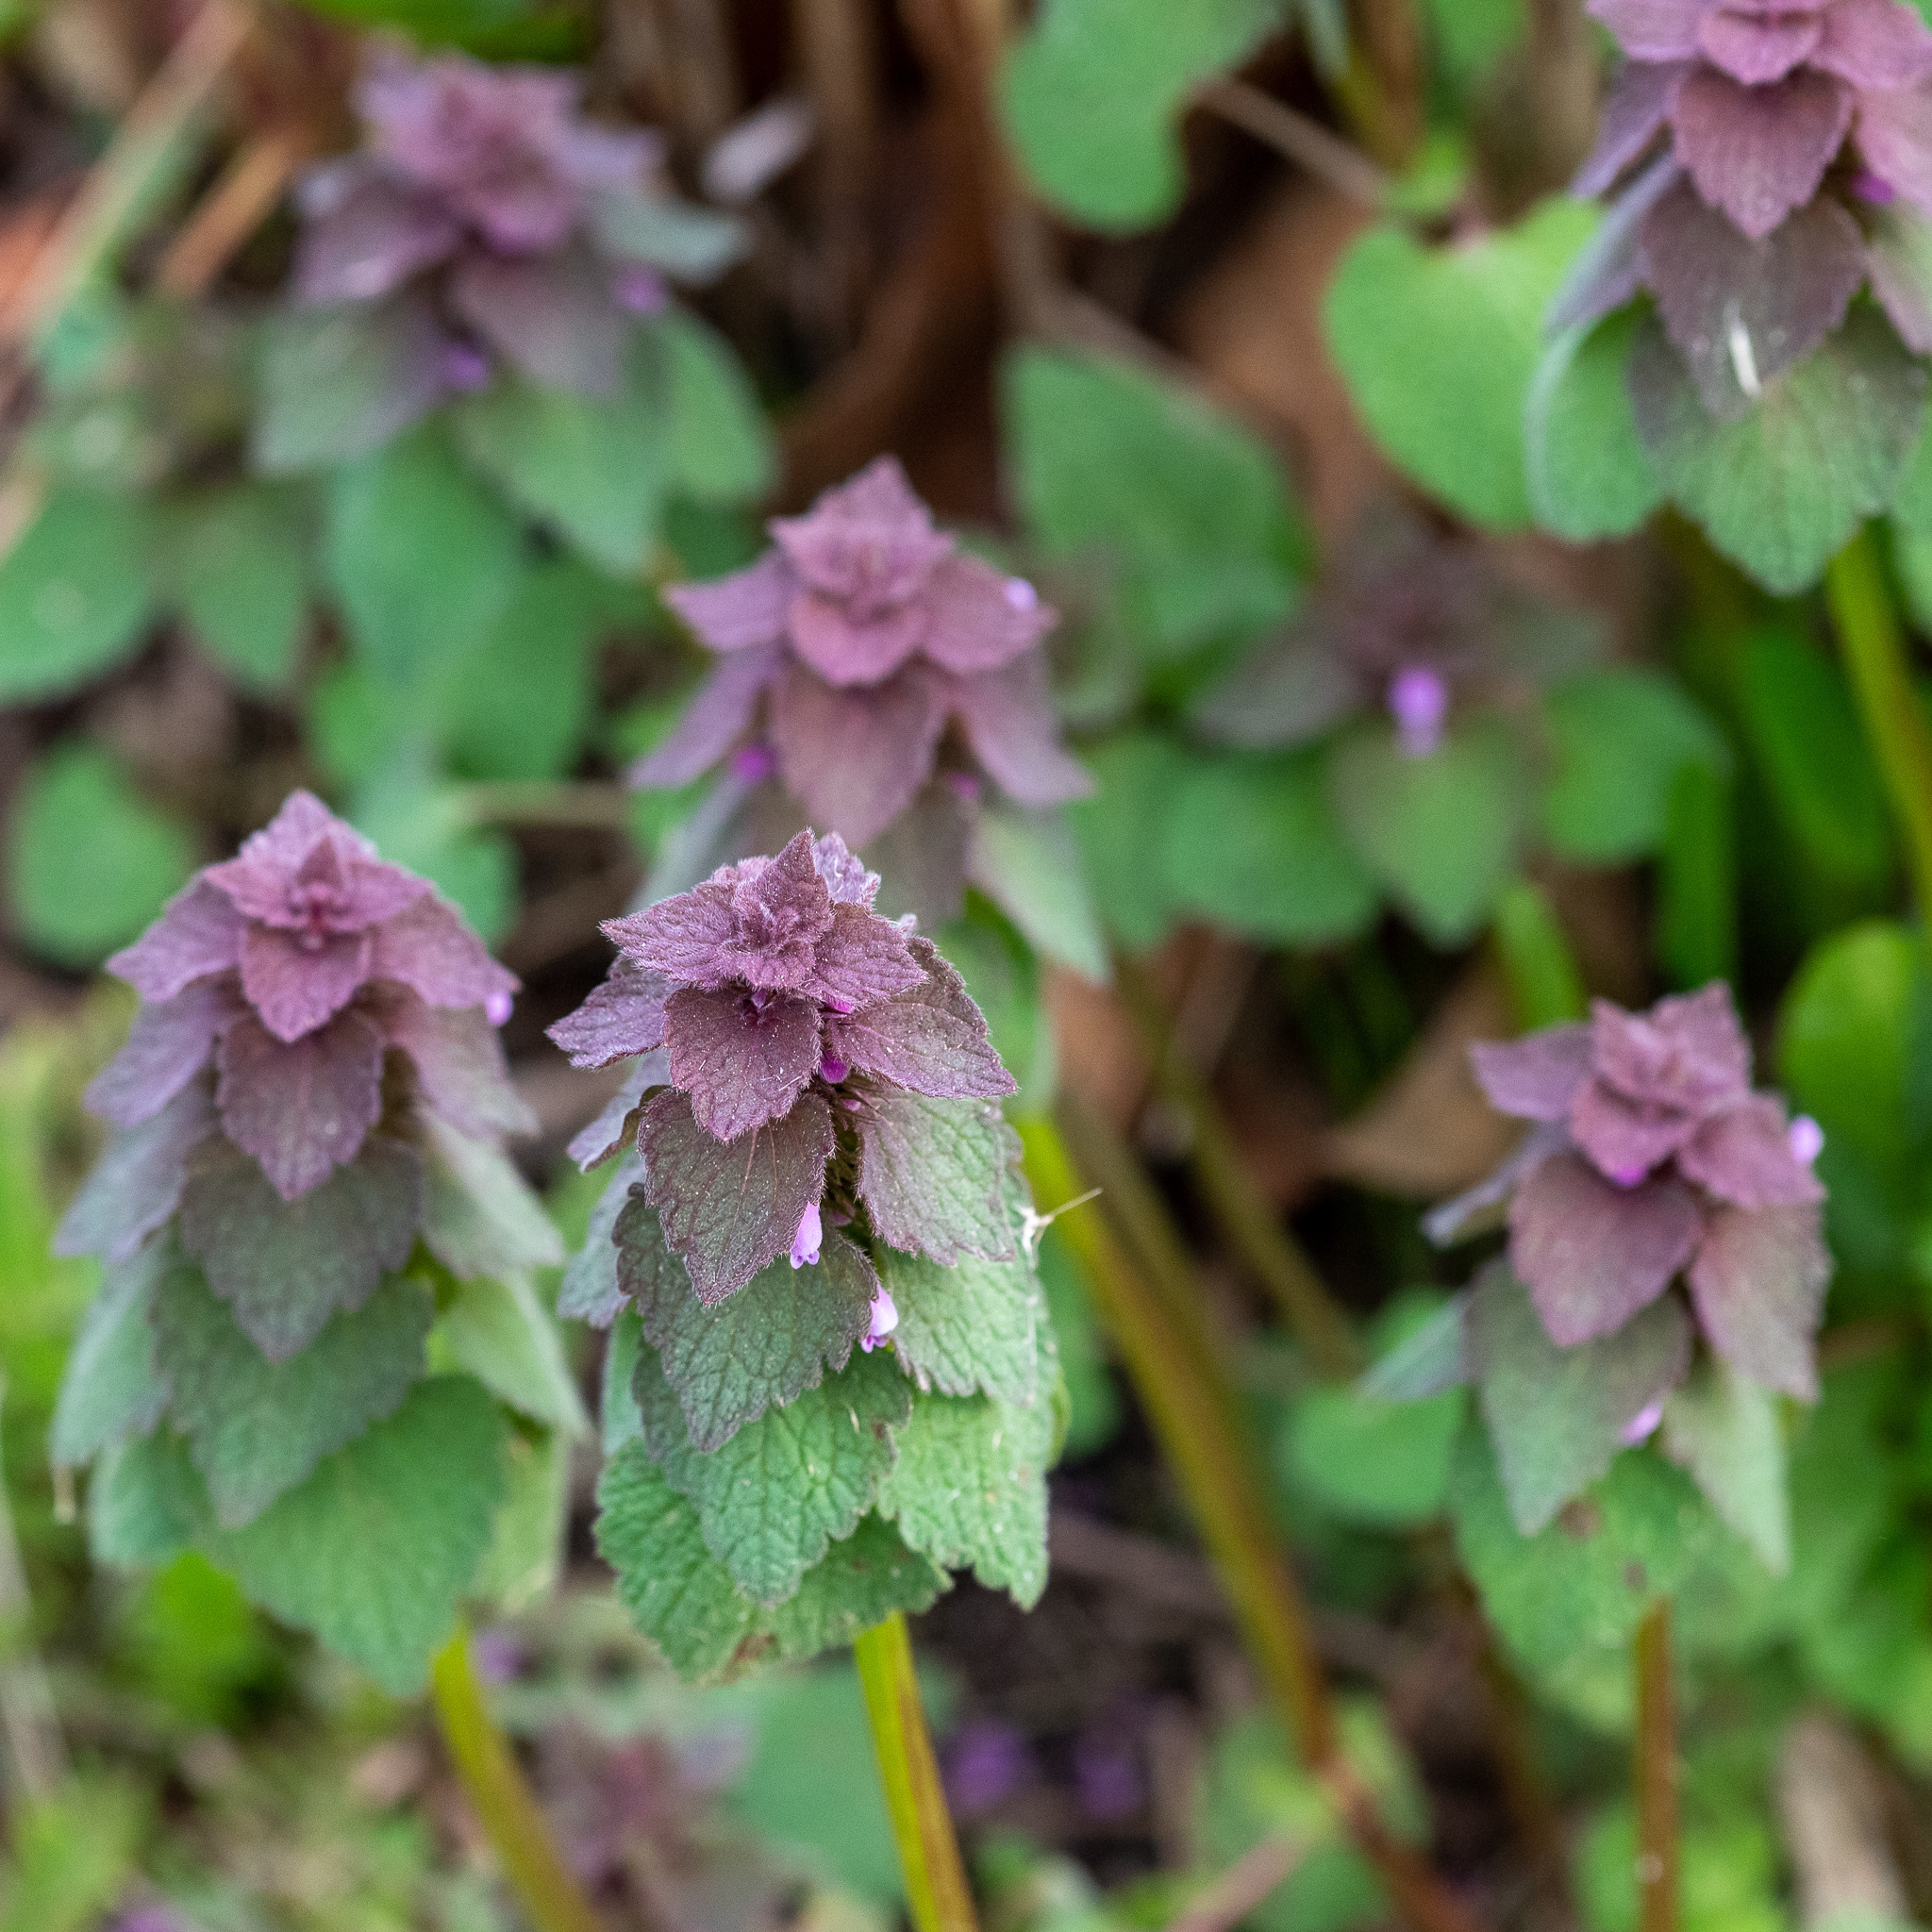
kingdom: Plantae
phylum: Tracheophyta
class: Magnoliopsida
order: Lamiales
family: Lamiaceae
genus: Lamium
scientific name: Lamium purpureum
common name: Red dead-nettle
